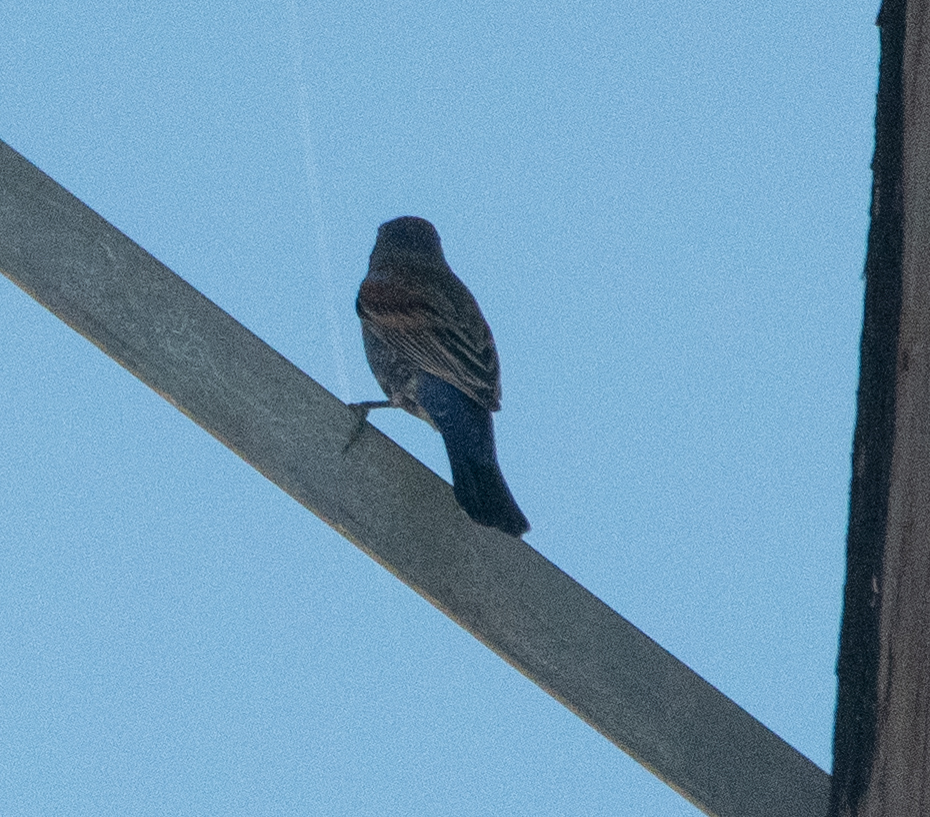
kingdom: Animalia
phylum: Chordata
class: Aves
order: Passeriformes
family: Cardinalidae
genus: Passerina
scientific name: Passerina caerulea
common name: Blue grosbeak
